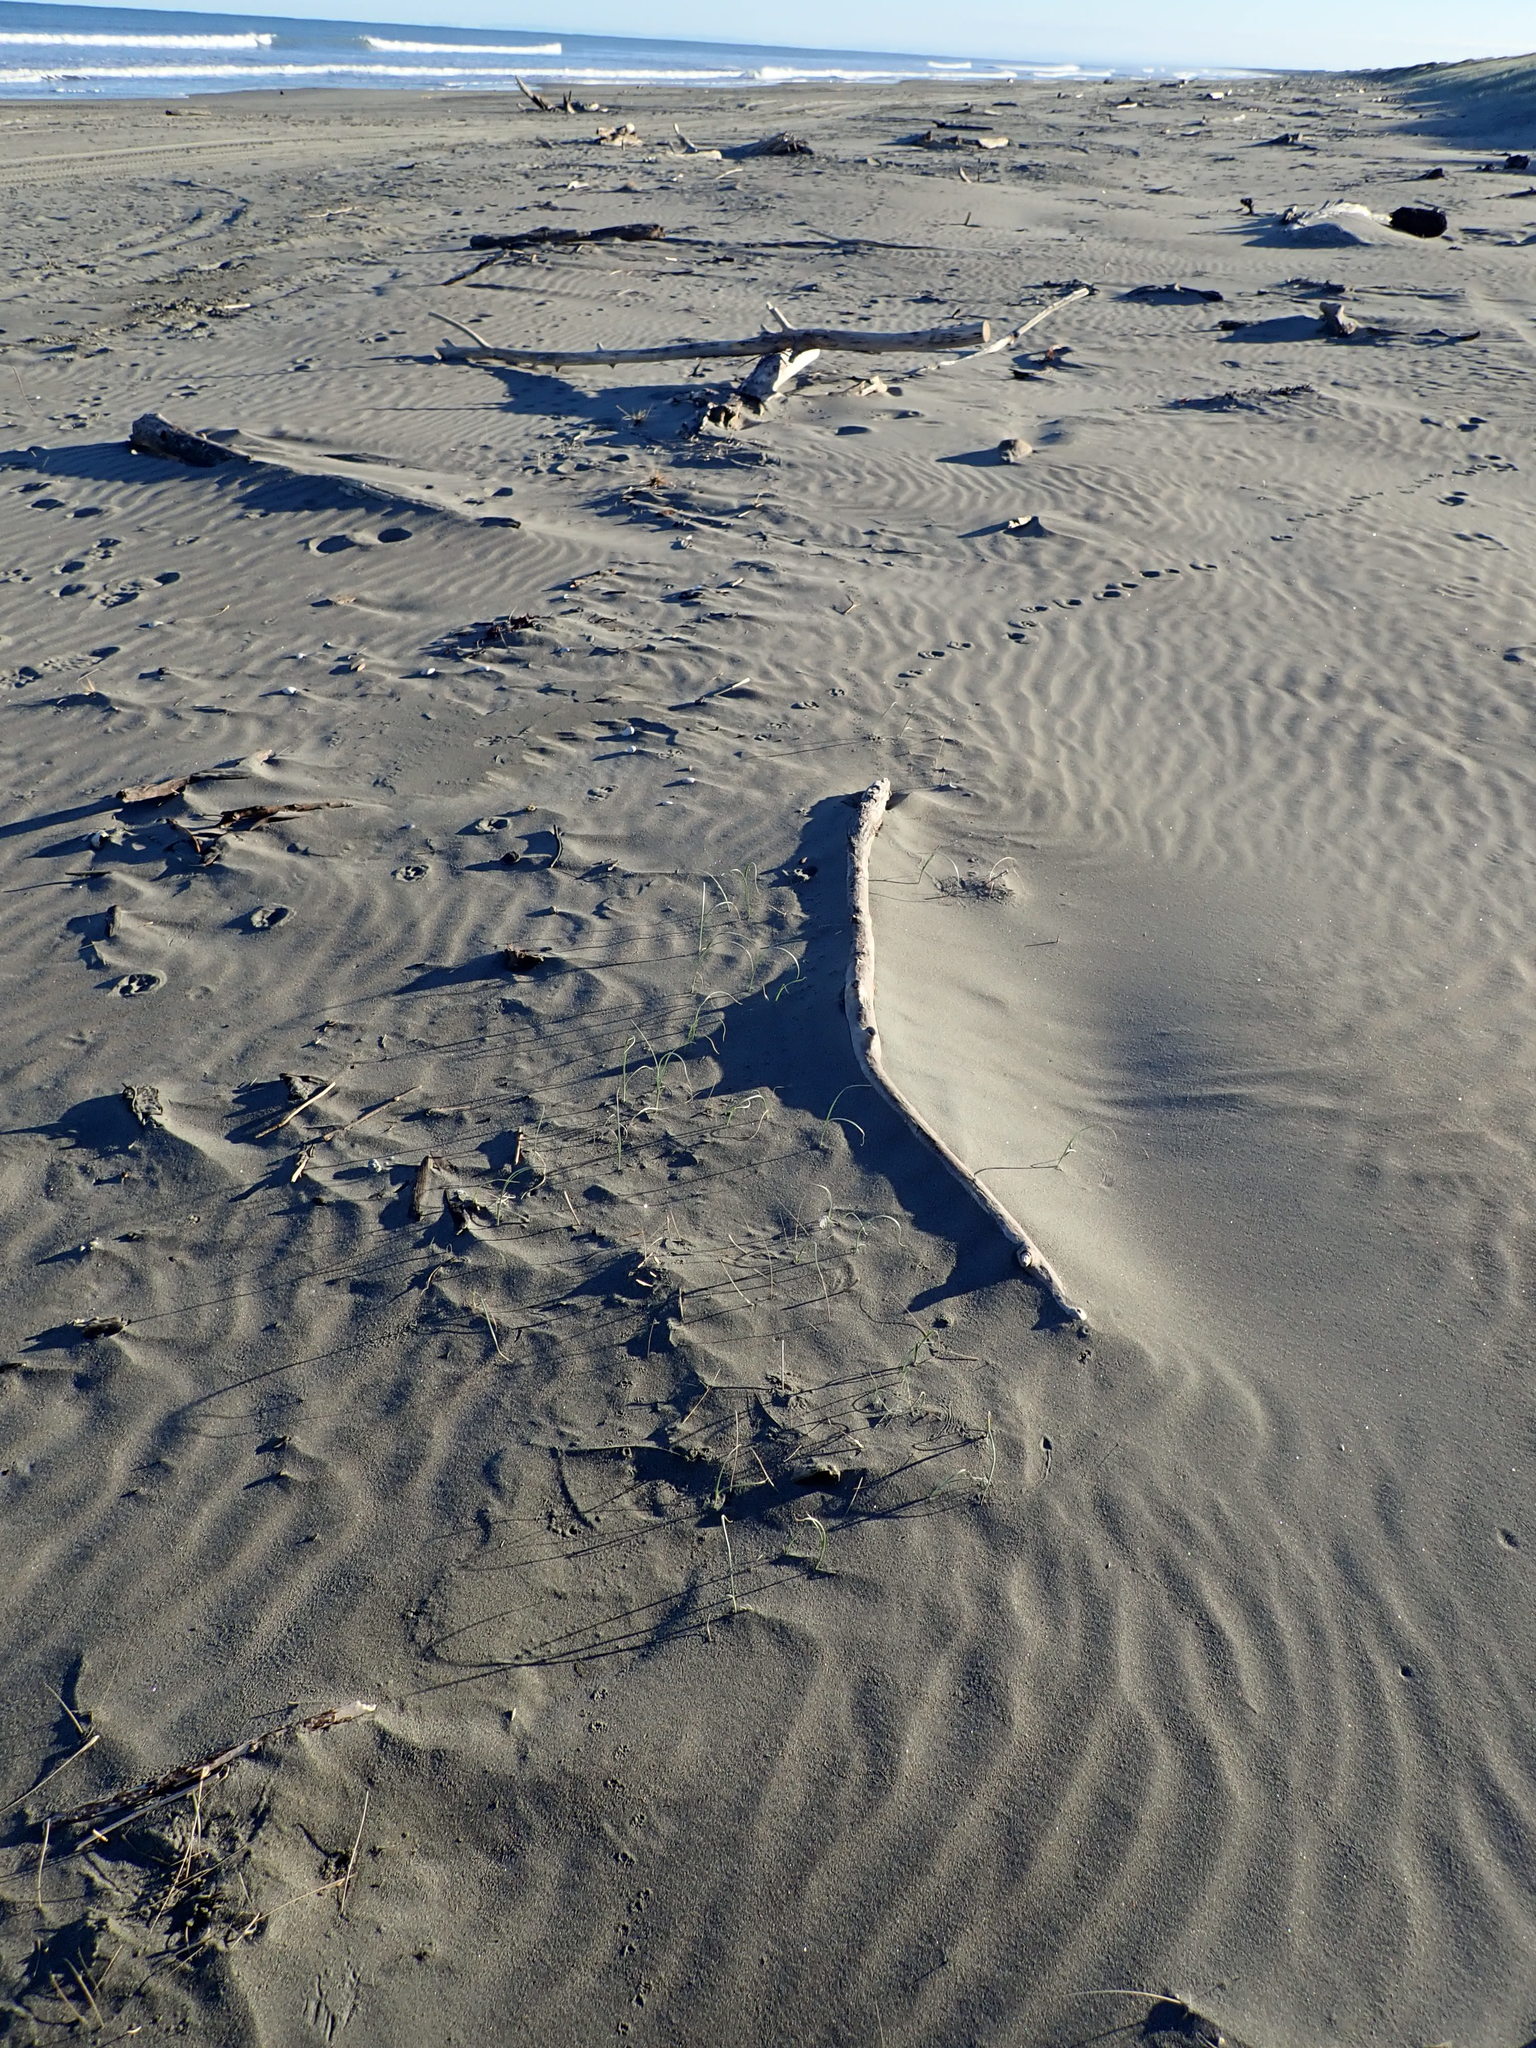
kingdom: Plantae
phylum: Tracheophyta
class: Liliopsida
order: Poales
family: Poaceae
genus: Spinifex
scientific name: Spinifex sericeus
